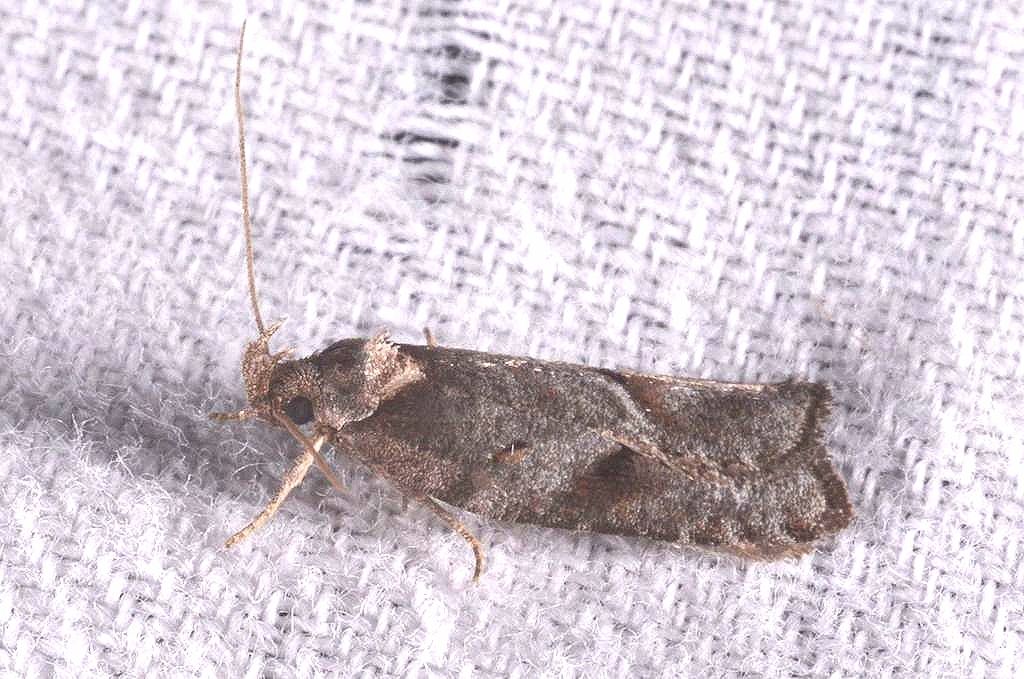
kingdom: Animalia
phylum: Arthropoda
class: Insecta
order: Lepidoptera
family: Depressariidae
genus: Exaeretia
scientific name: Exaeretia allisella
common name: Mugwort flat-body
